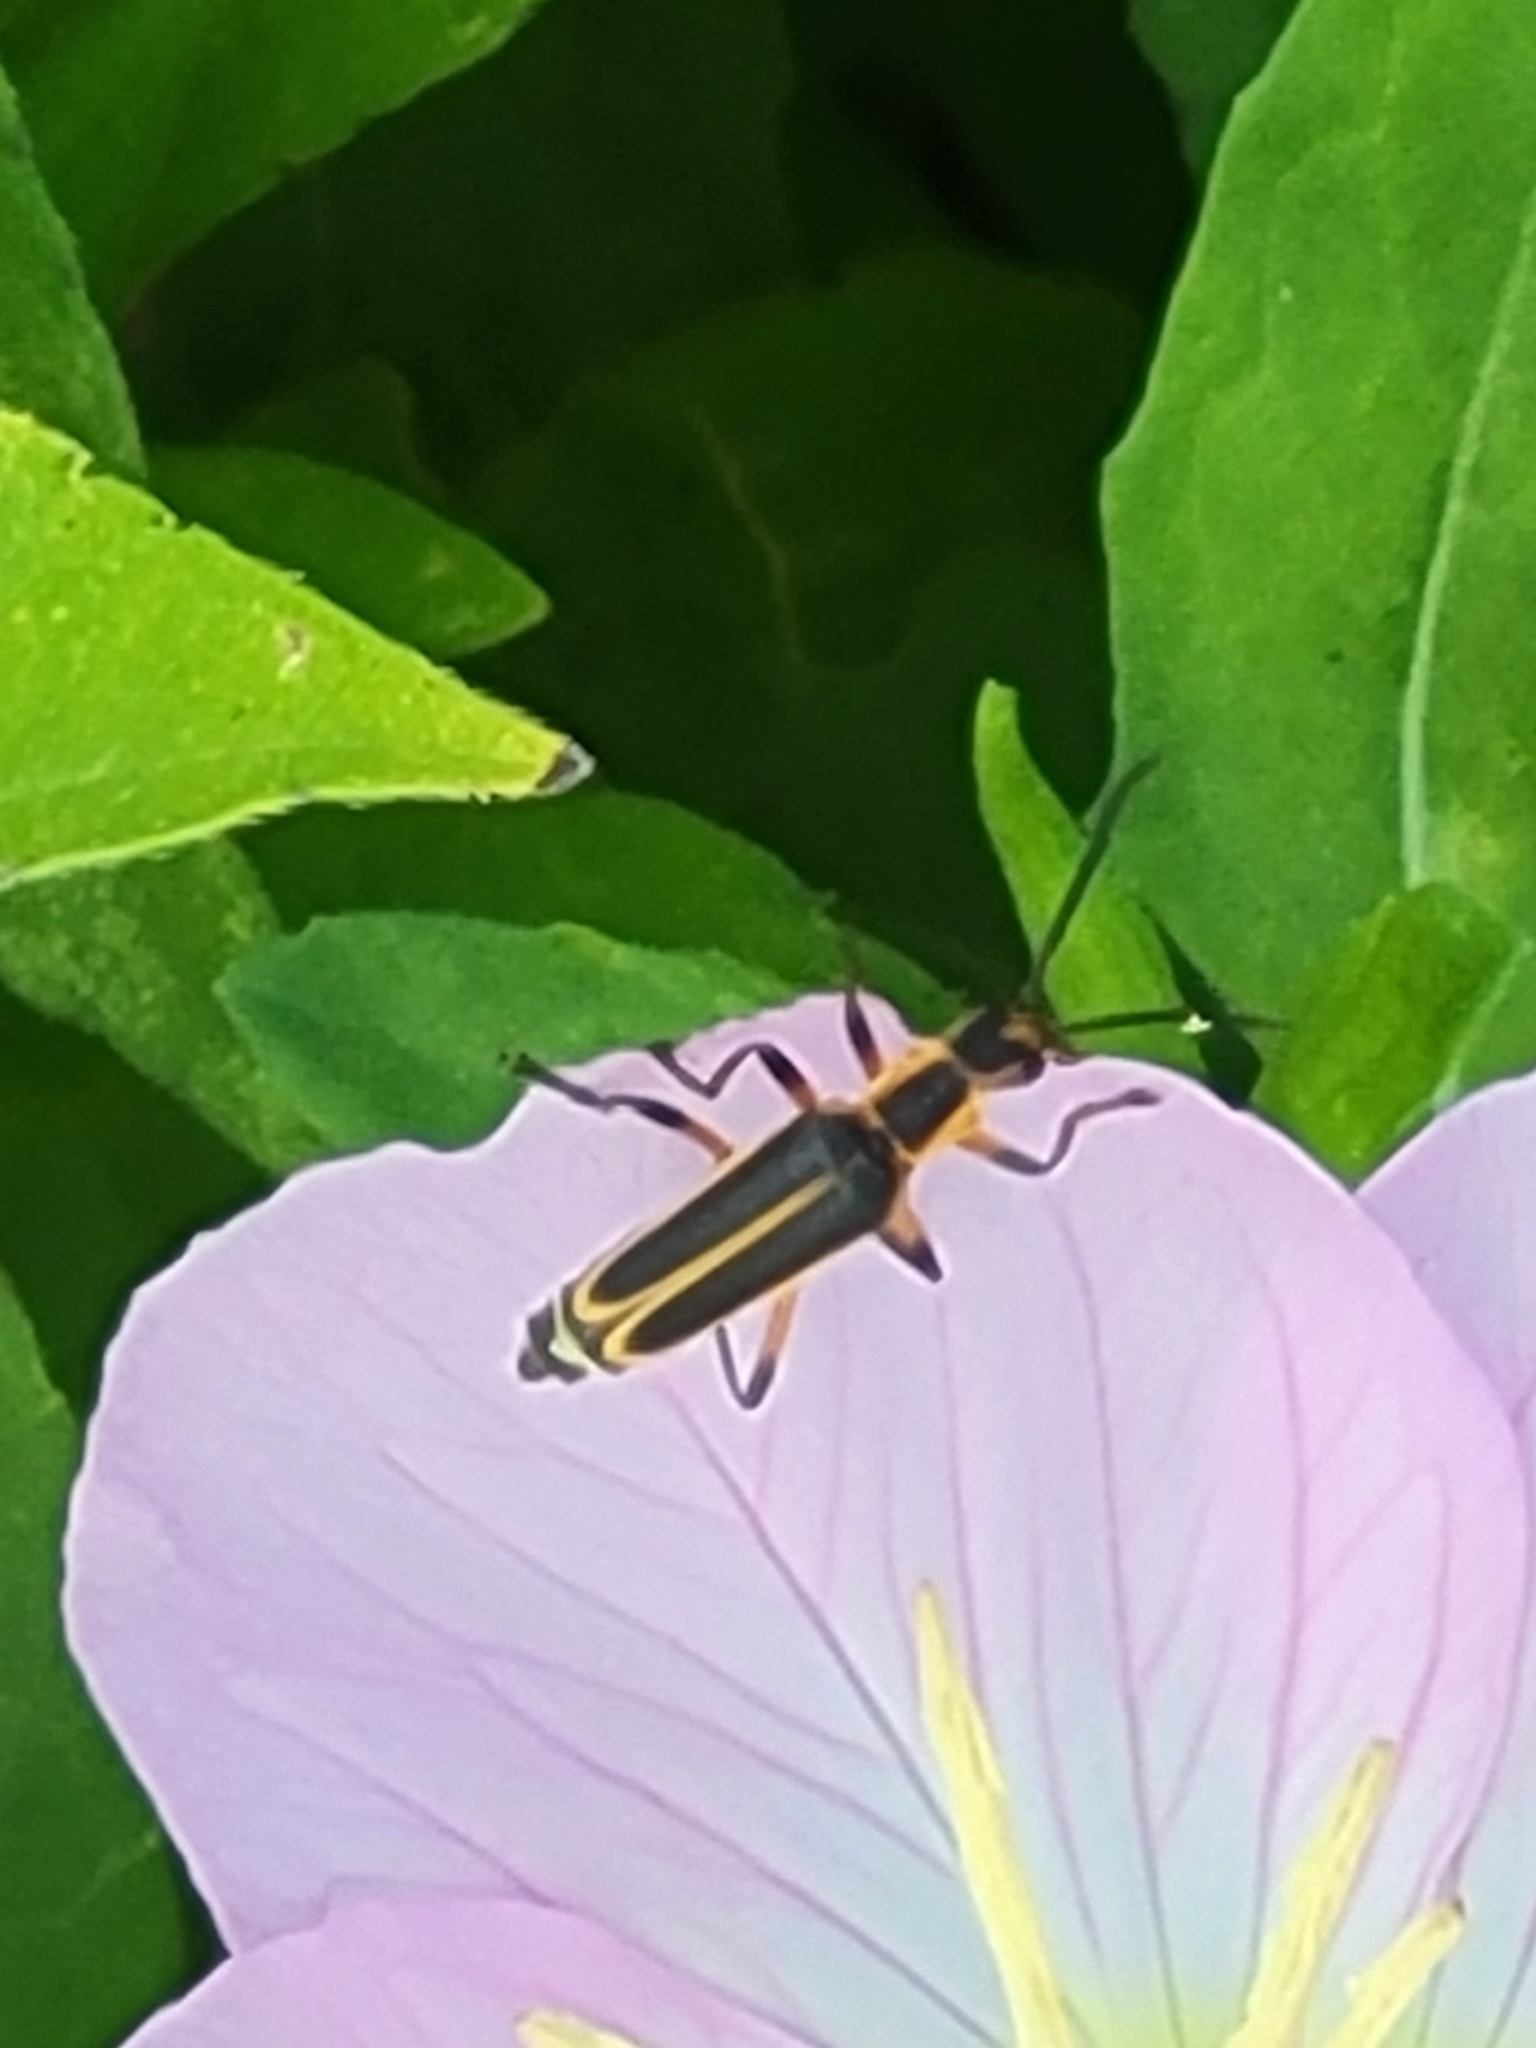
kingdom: Animalia
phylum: Arthropoda
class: Insecta
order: Coleoptera
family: Cantharidae
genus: Chauliognathus
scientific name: Chauliognathus marginatus
